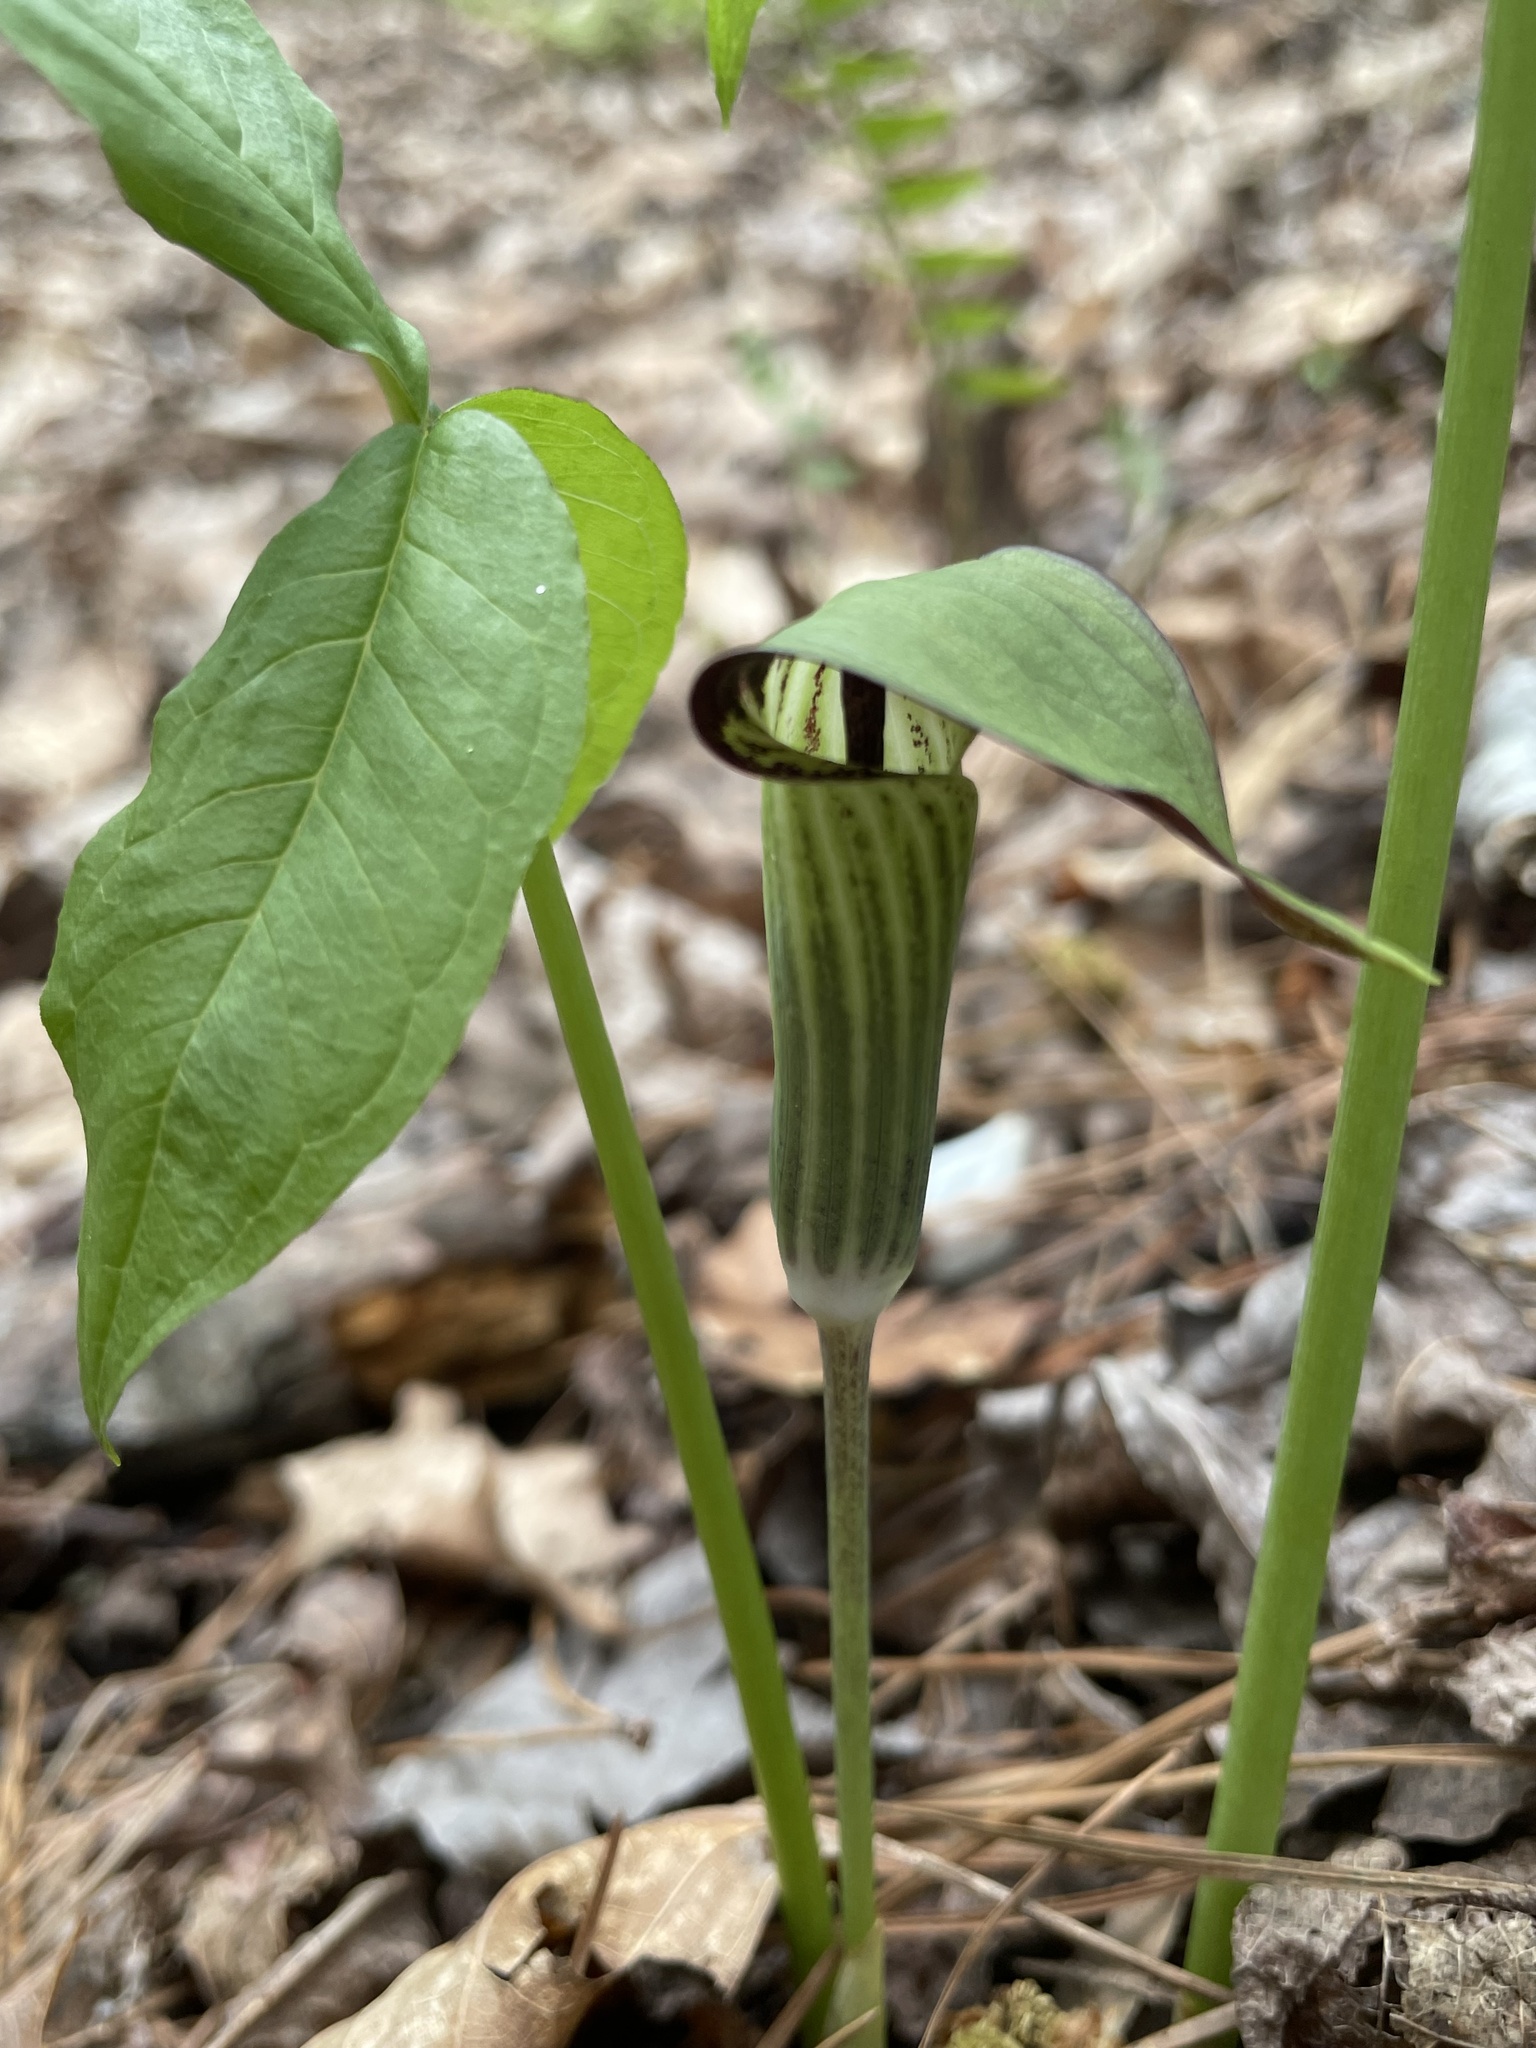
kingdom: Plantae
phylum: Tracheophyta
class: Liliopsida
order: Alismatales
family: Araceae
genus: Arisaema
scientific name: Arisaema pusillum
